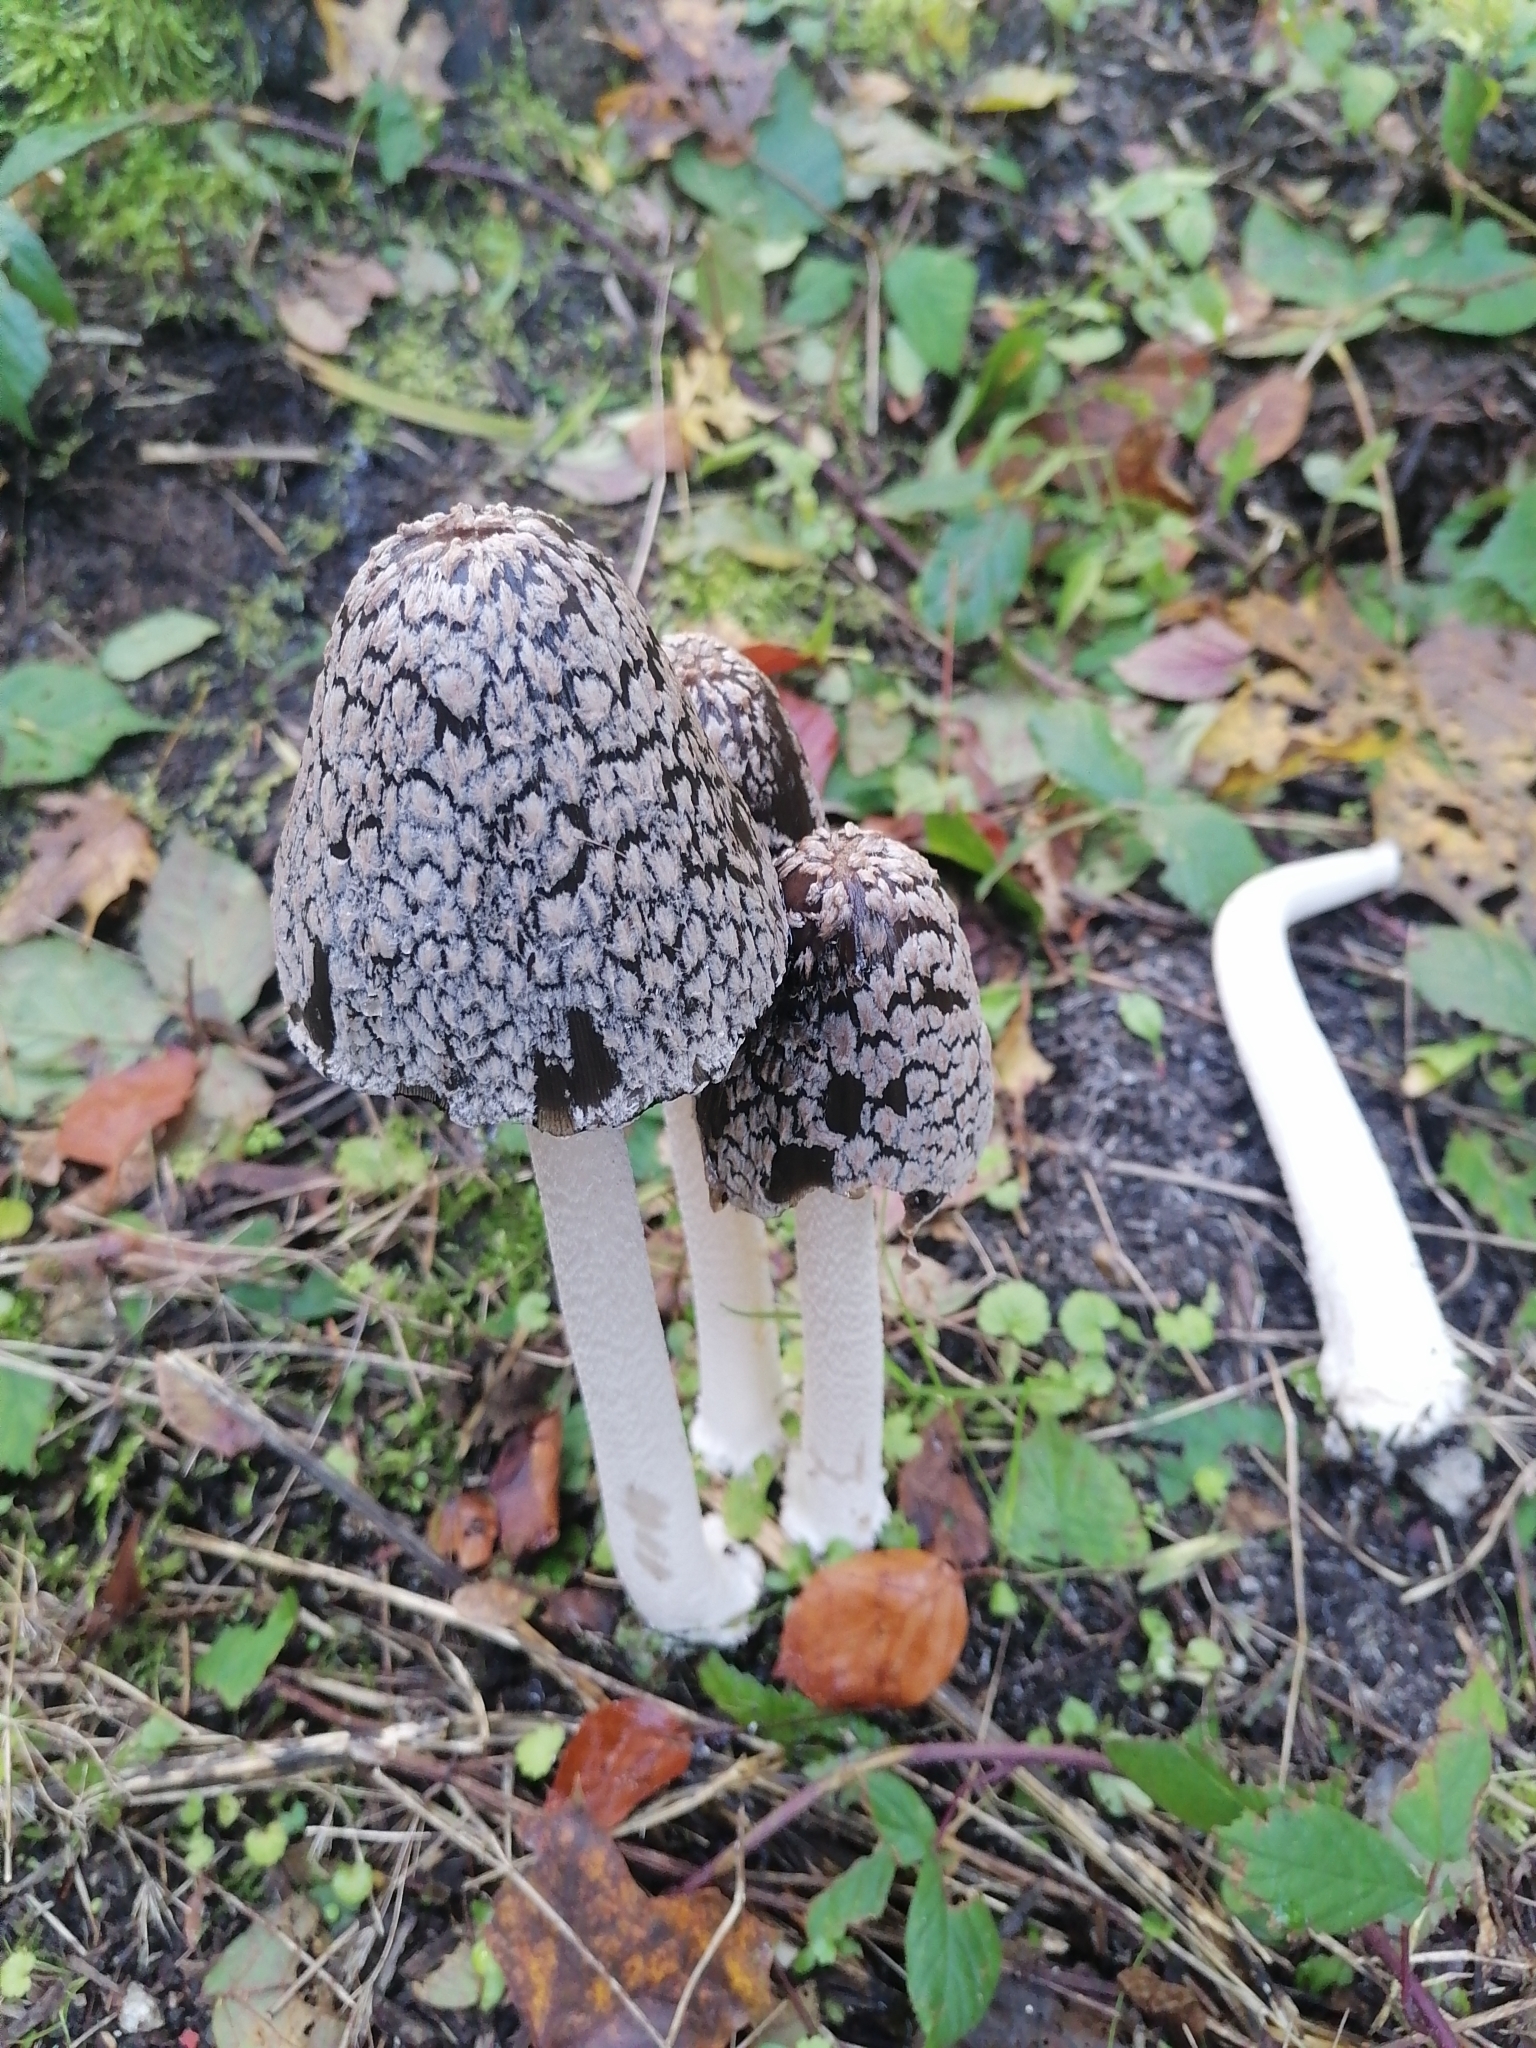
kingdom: Fungi
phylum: Basidiomycota
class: Agaricomycetes
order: Agaricales
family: Psathyrellaceae
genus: Coprinopsis
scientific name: Coprinopsis picacea
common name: Magpie inkcap
